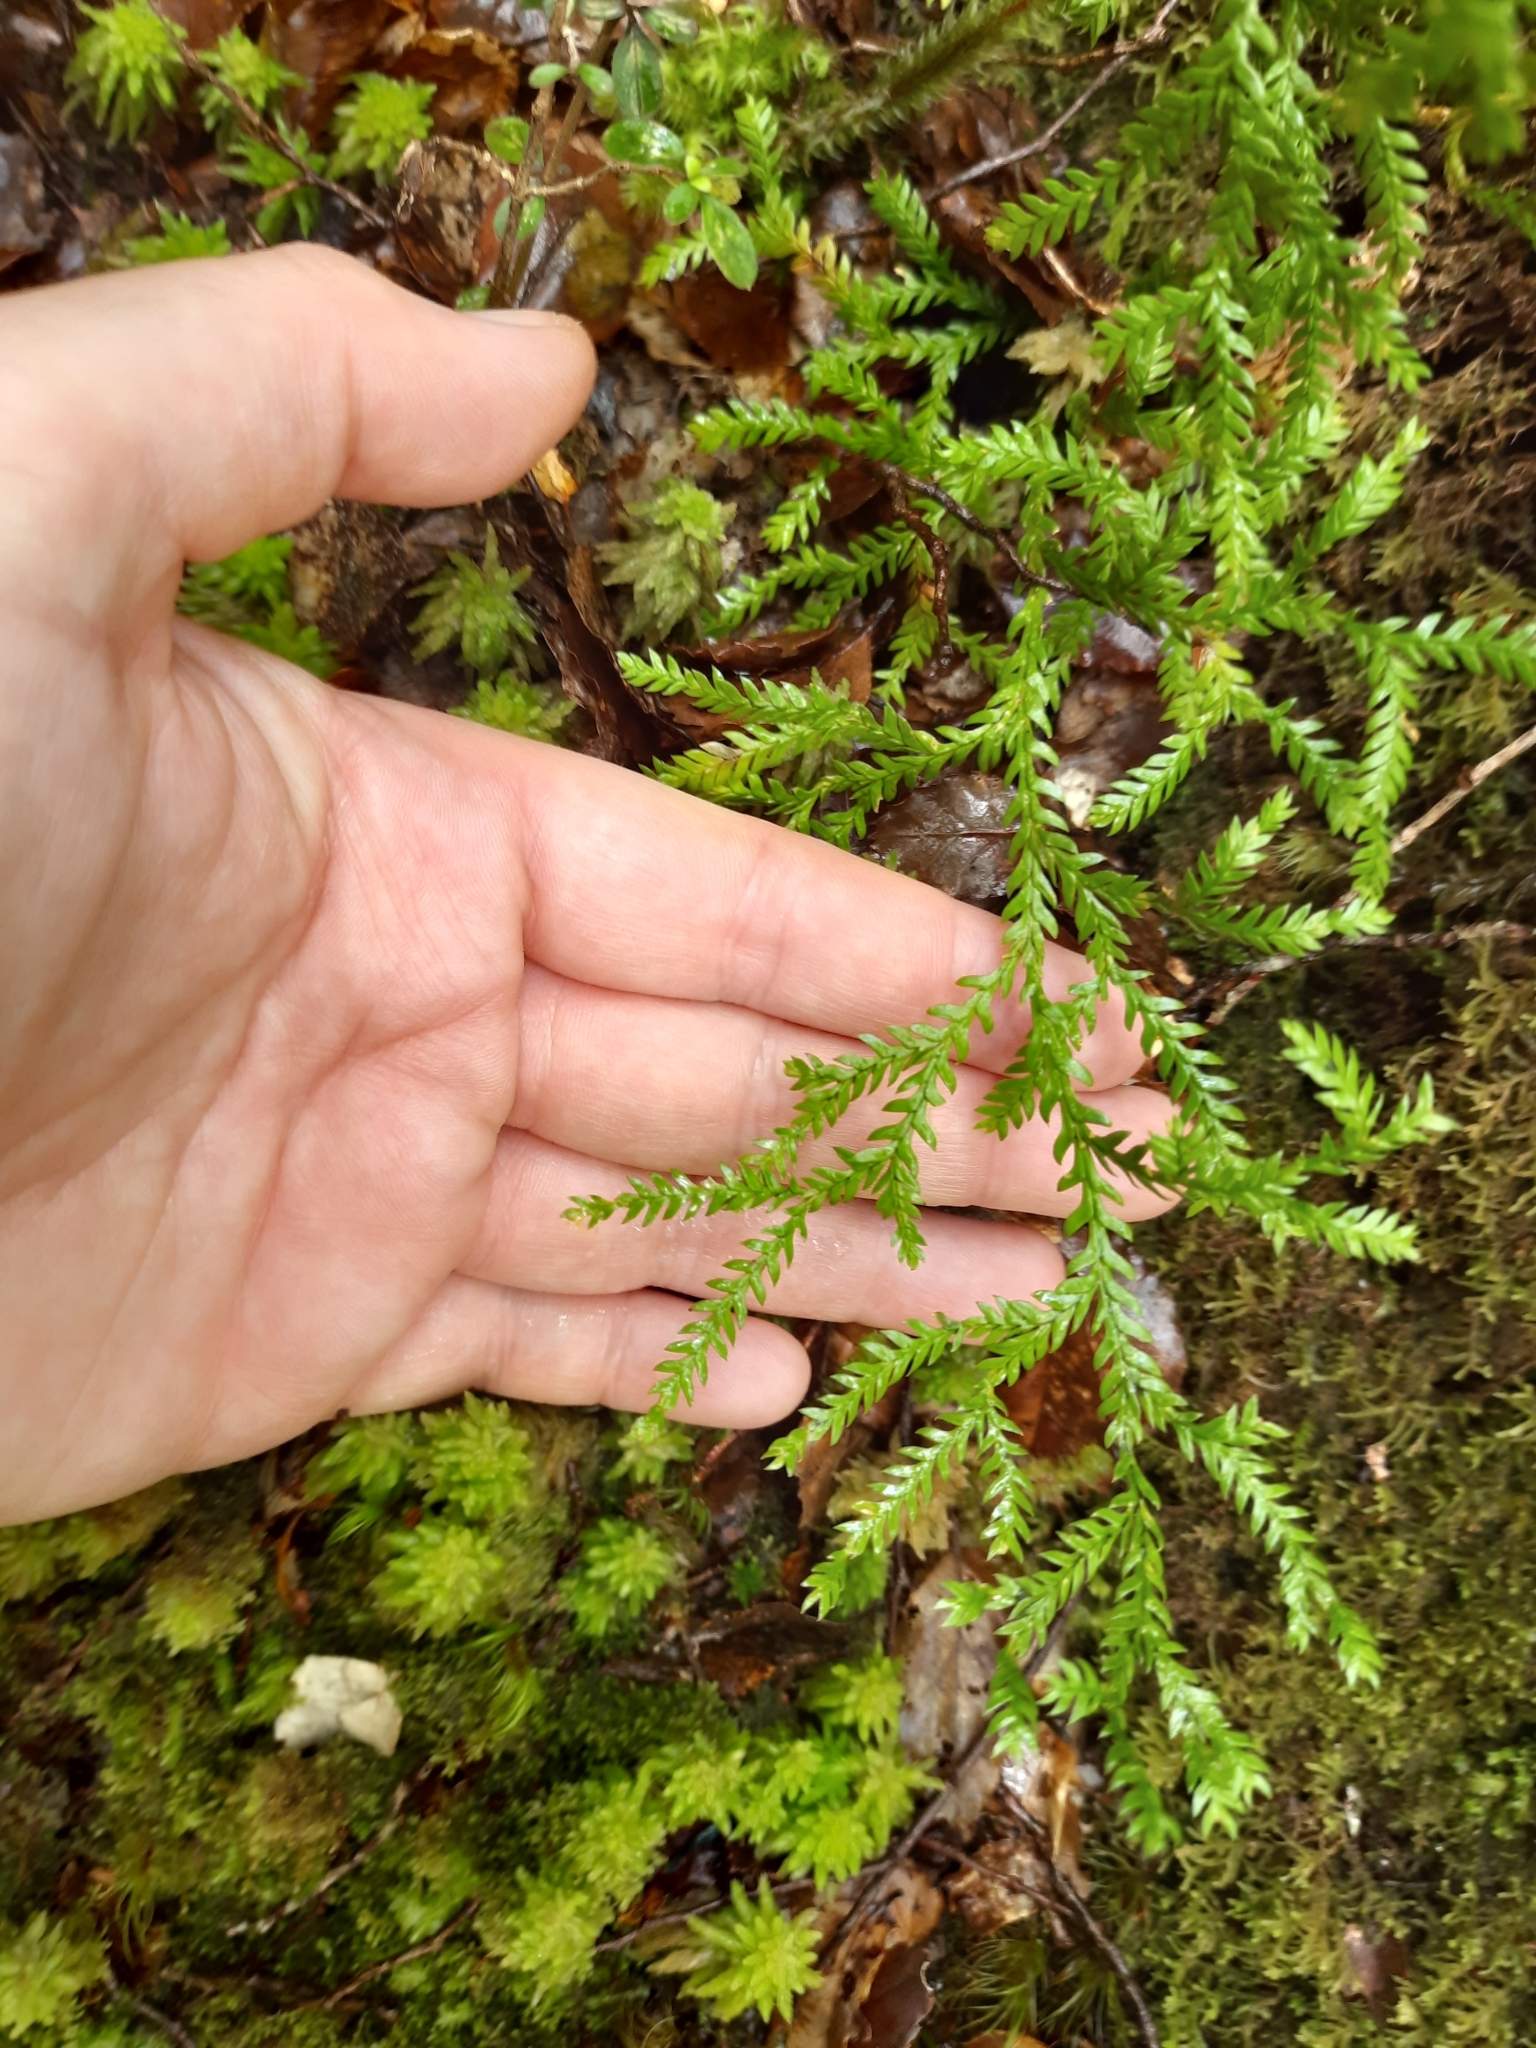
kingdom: Plantae
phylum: Tracheophyta
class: Lycopodiopsida
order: Lycopodiales
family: Lycopodiaceae
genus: Lycopodium
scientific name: Lycopodium volubile
